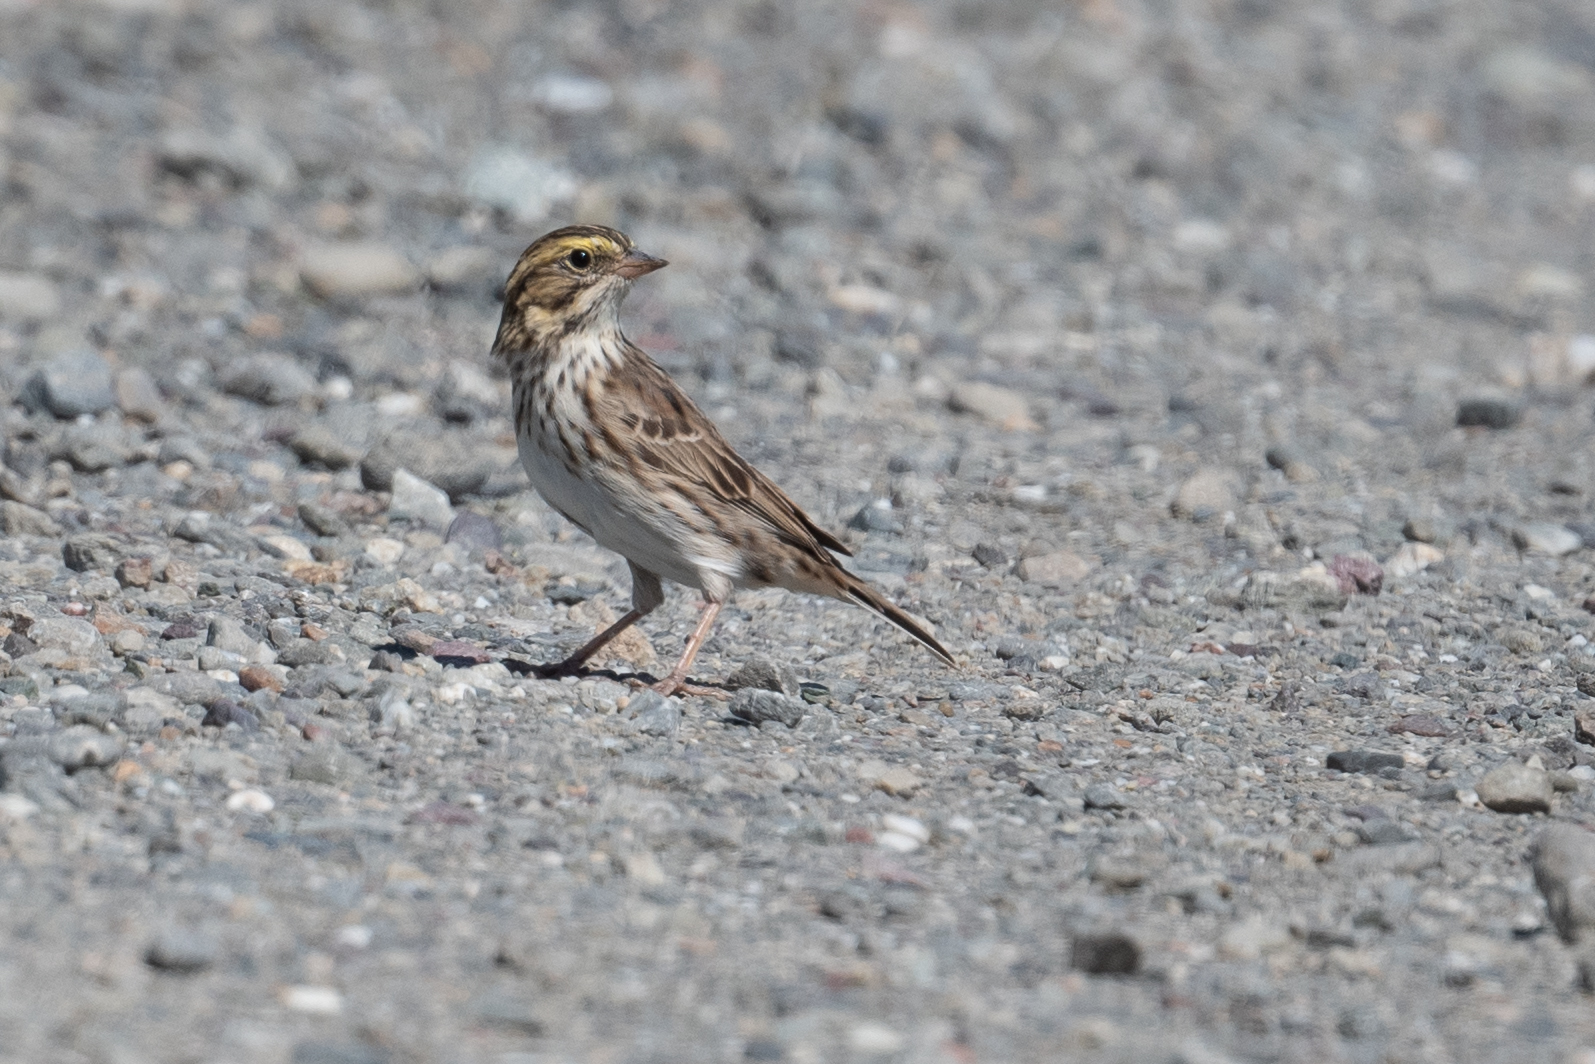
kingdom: Animalia
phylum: Chordata
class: Aves
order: Passeriformes
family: Passerellidae
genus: Passerculus
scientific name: Passerculus sandwichensis
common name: Savannah sparrow
